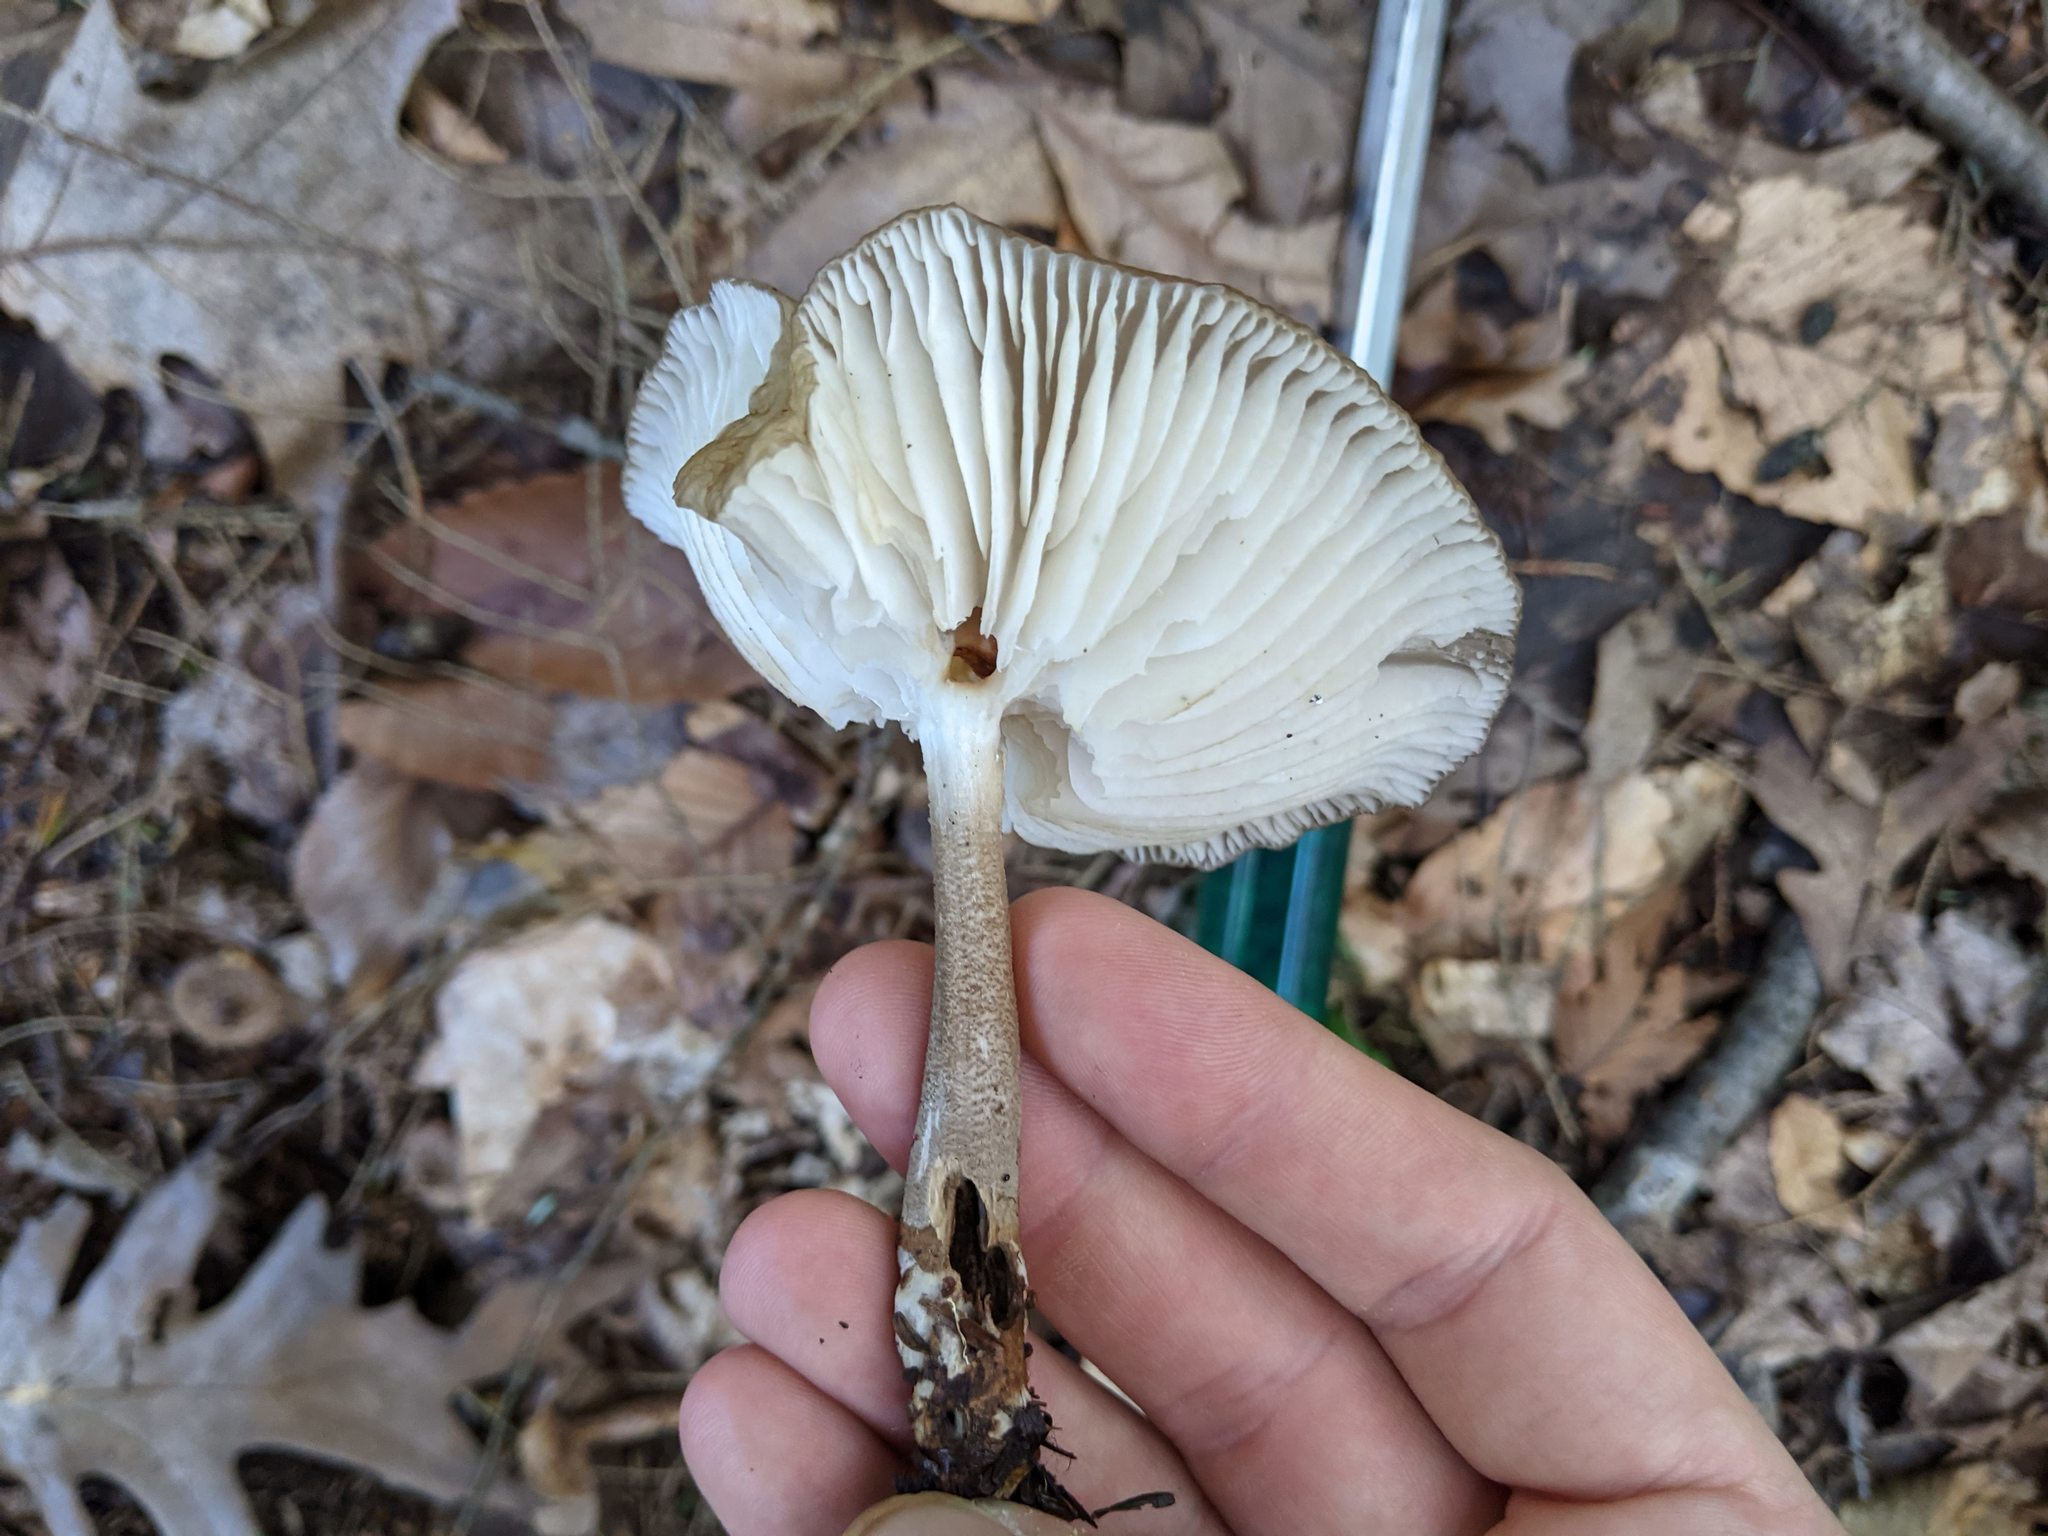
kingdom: Fungi
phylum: Basidiomycota
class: Agaricomycetes
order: Agaricales
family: Physalacriaceae
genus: Hymenopellis
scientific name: Hymenopellis furfuracea
